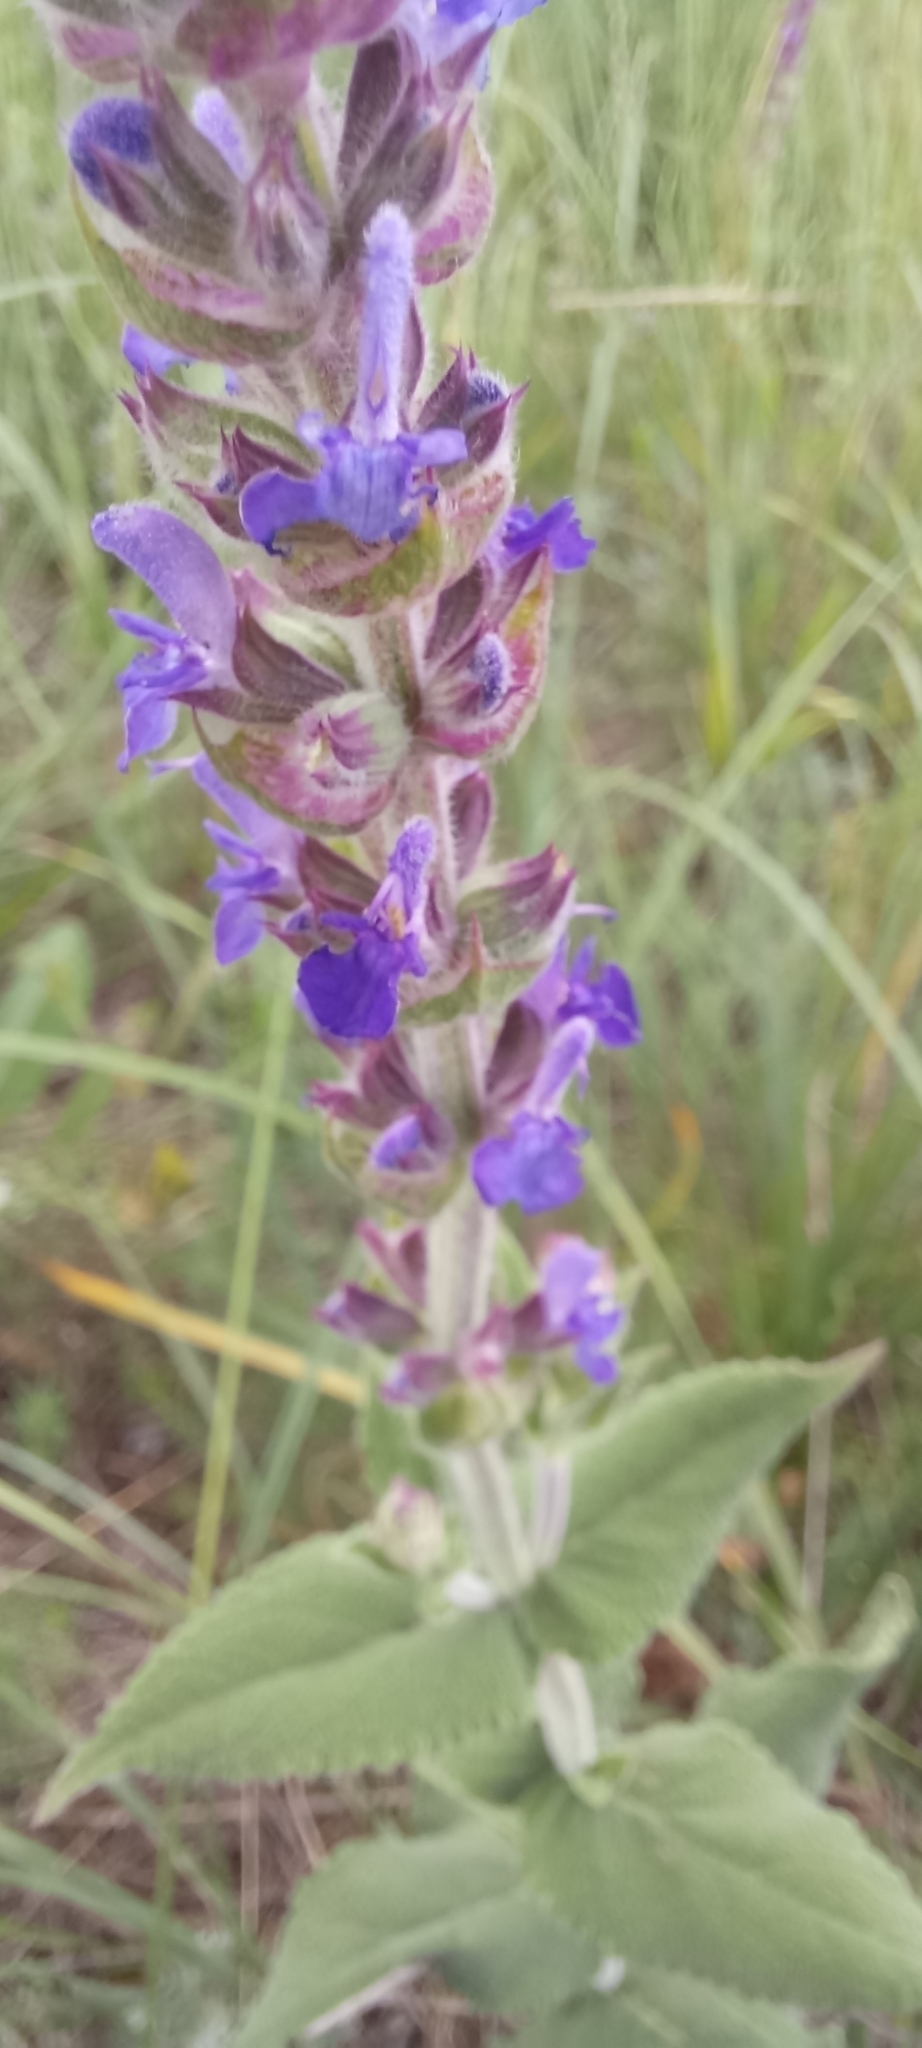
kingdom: Plantae
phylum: Tracheophyta
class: Magnoliopsida
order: Lamiales
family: Lamiaceae
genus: Salvia
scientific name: Salvia nemorosa
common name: Balkan clary
